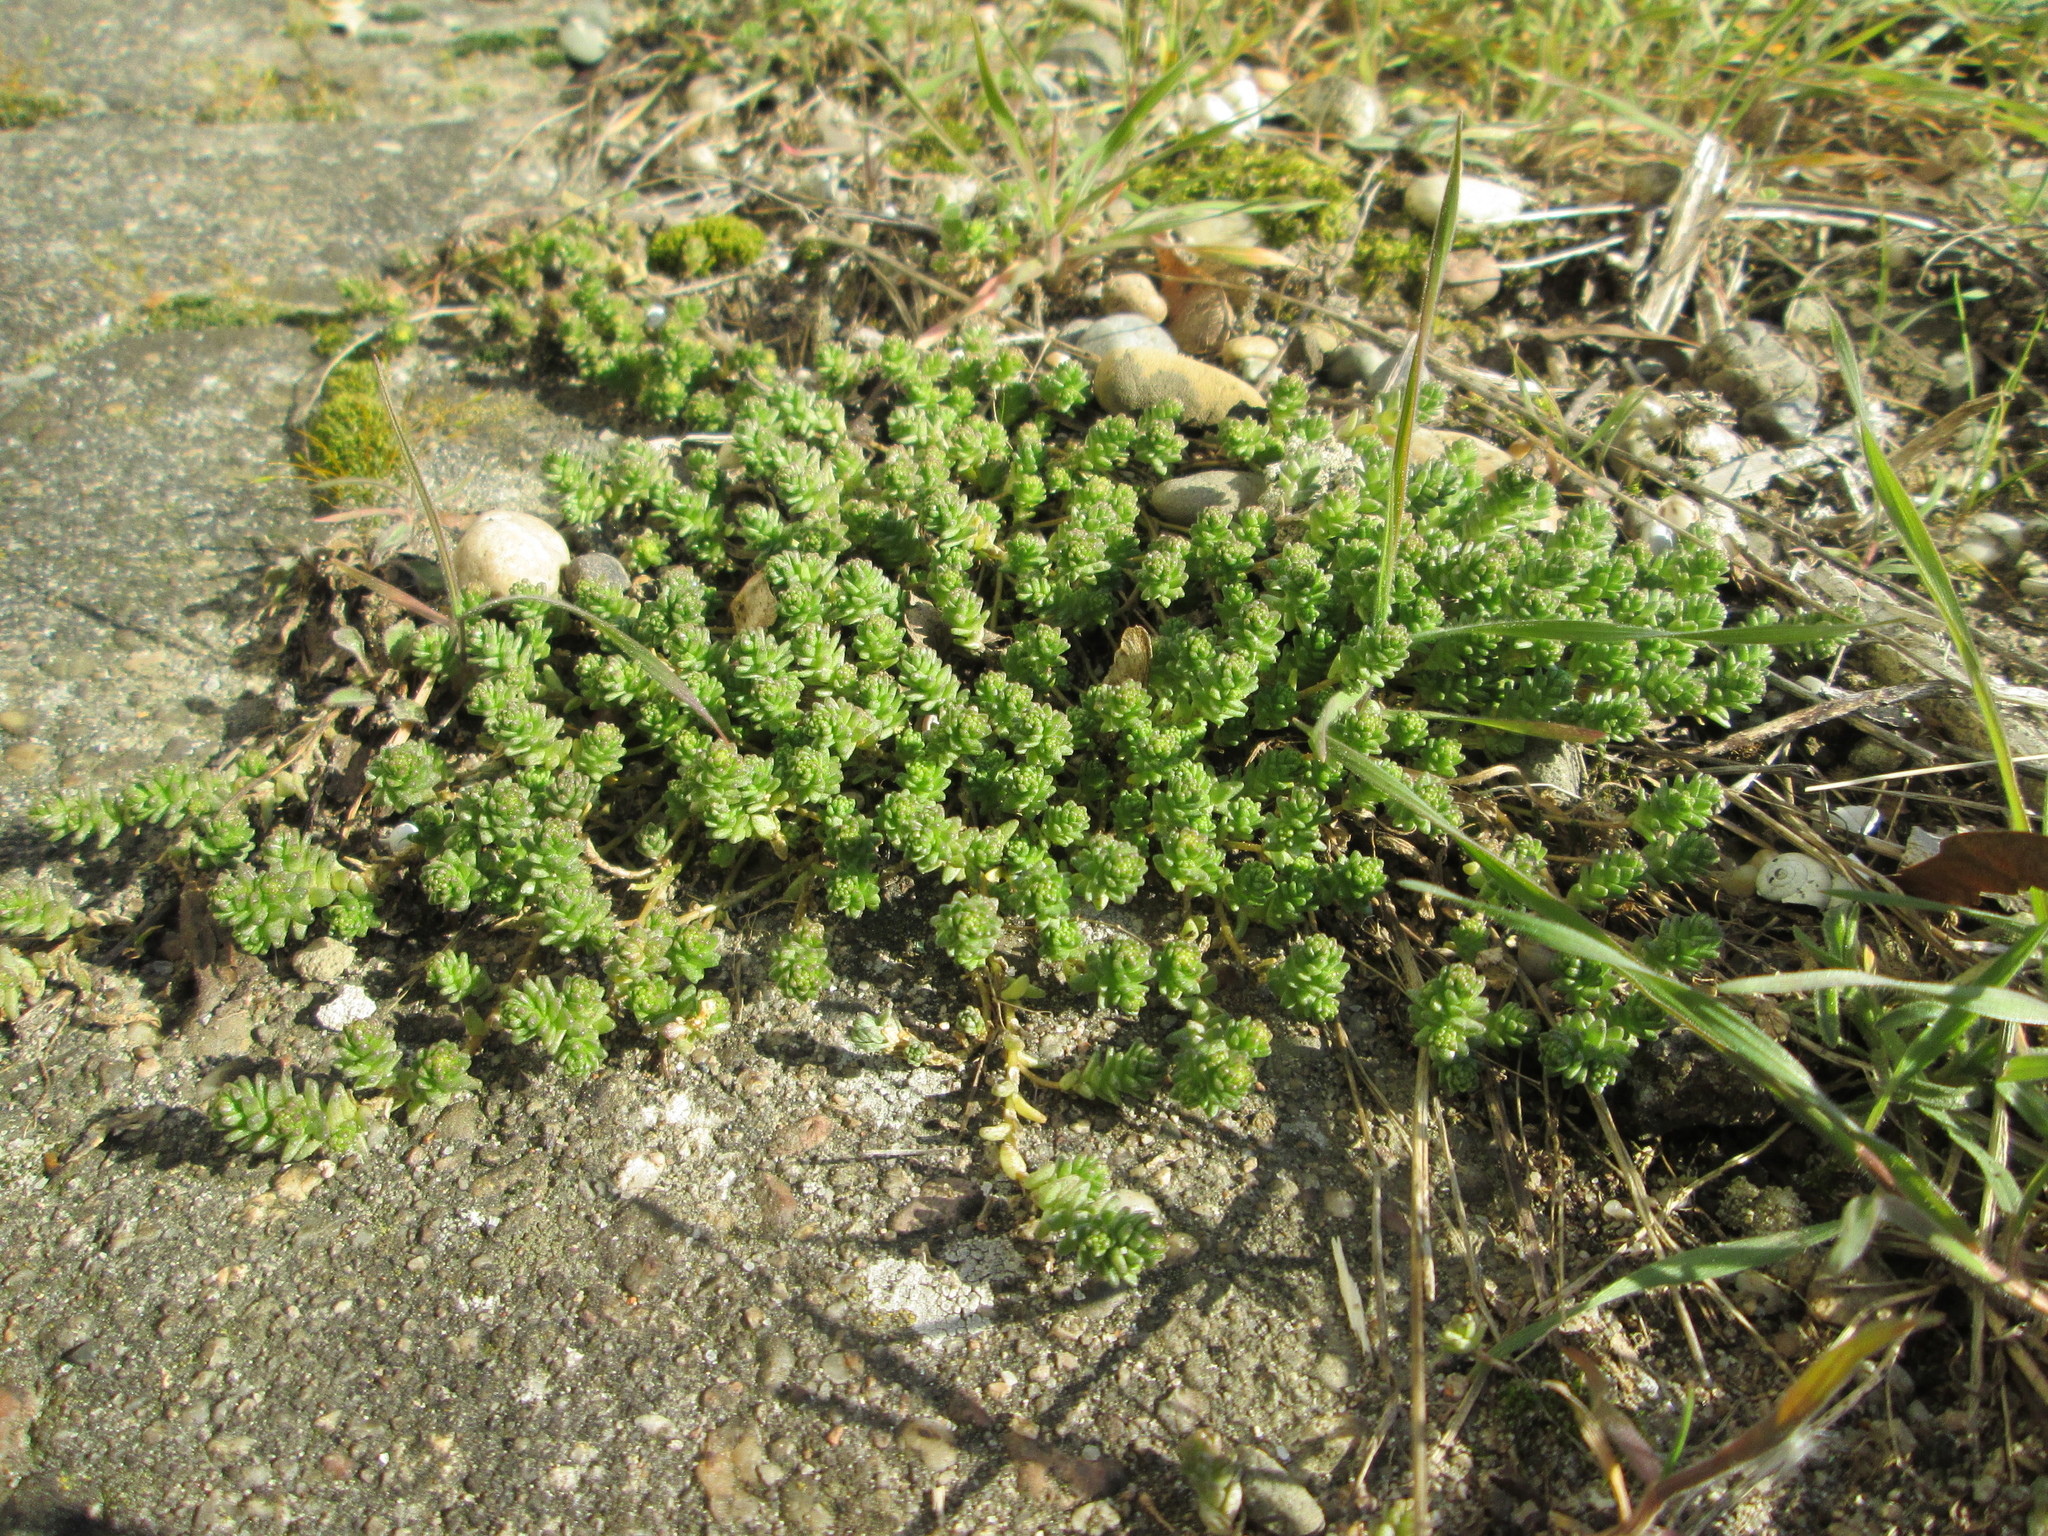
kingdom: Plantae
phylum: Tracheophyta
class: Magnoliopsida
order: Saxifragales
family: Crassulaceae
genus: Sedum
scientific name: Sedum acre
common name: Biting stonecrop
